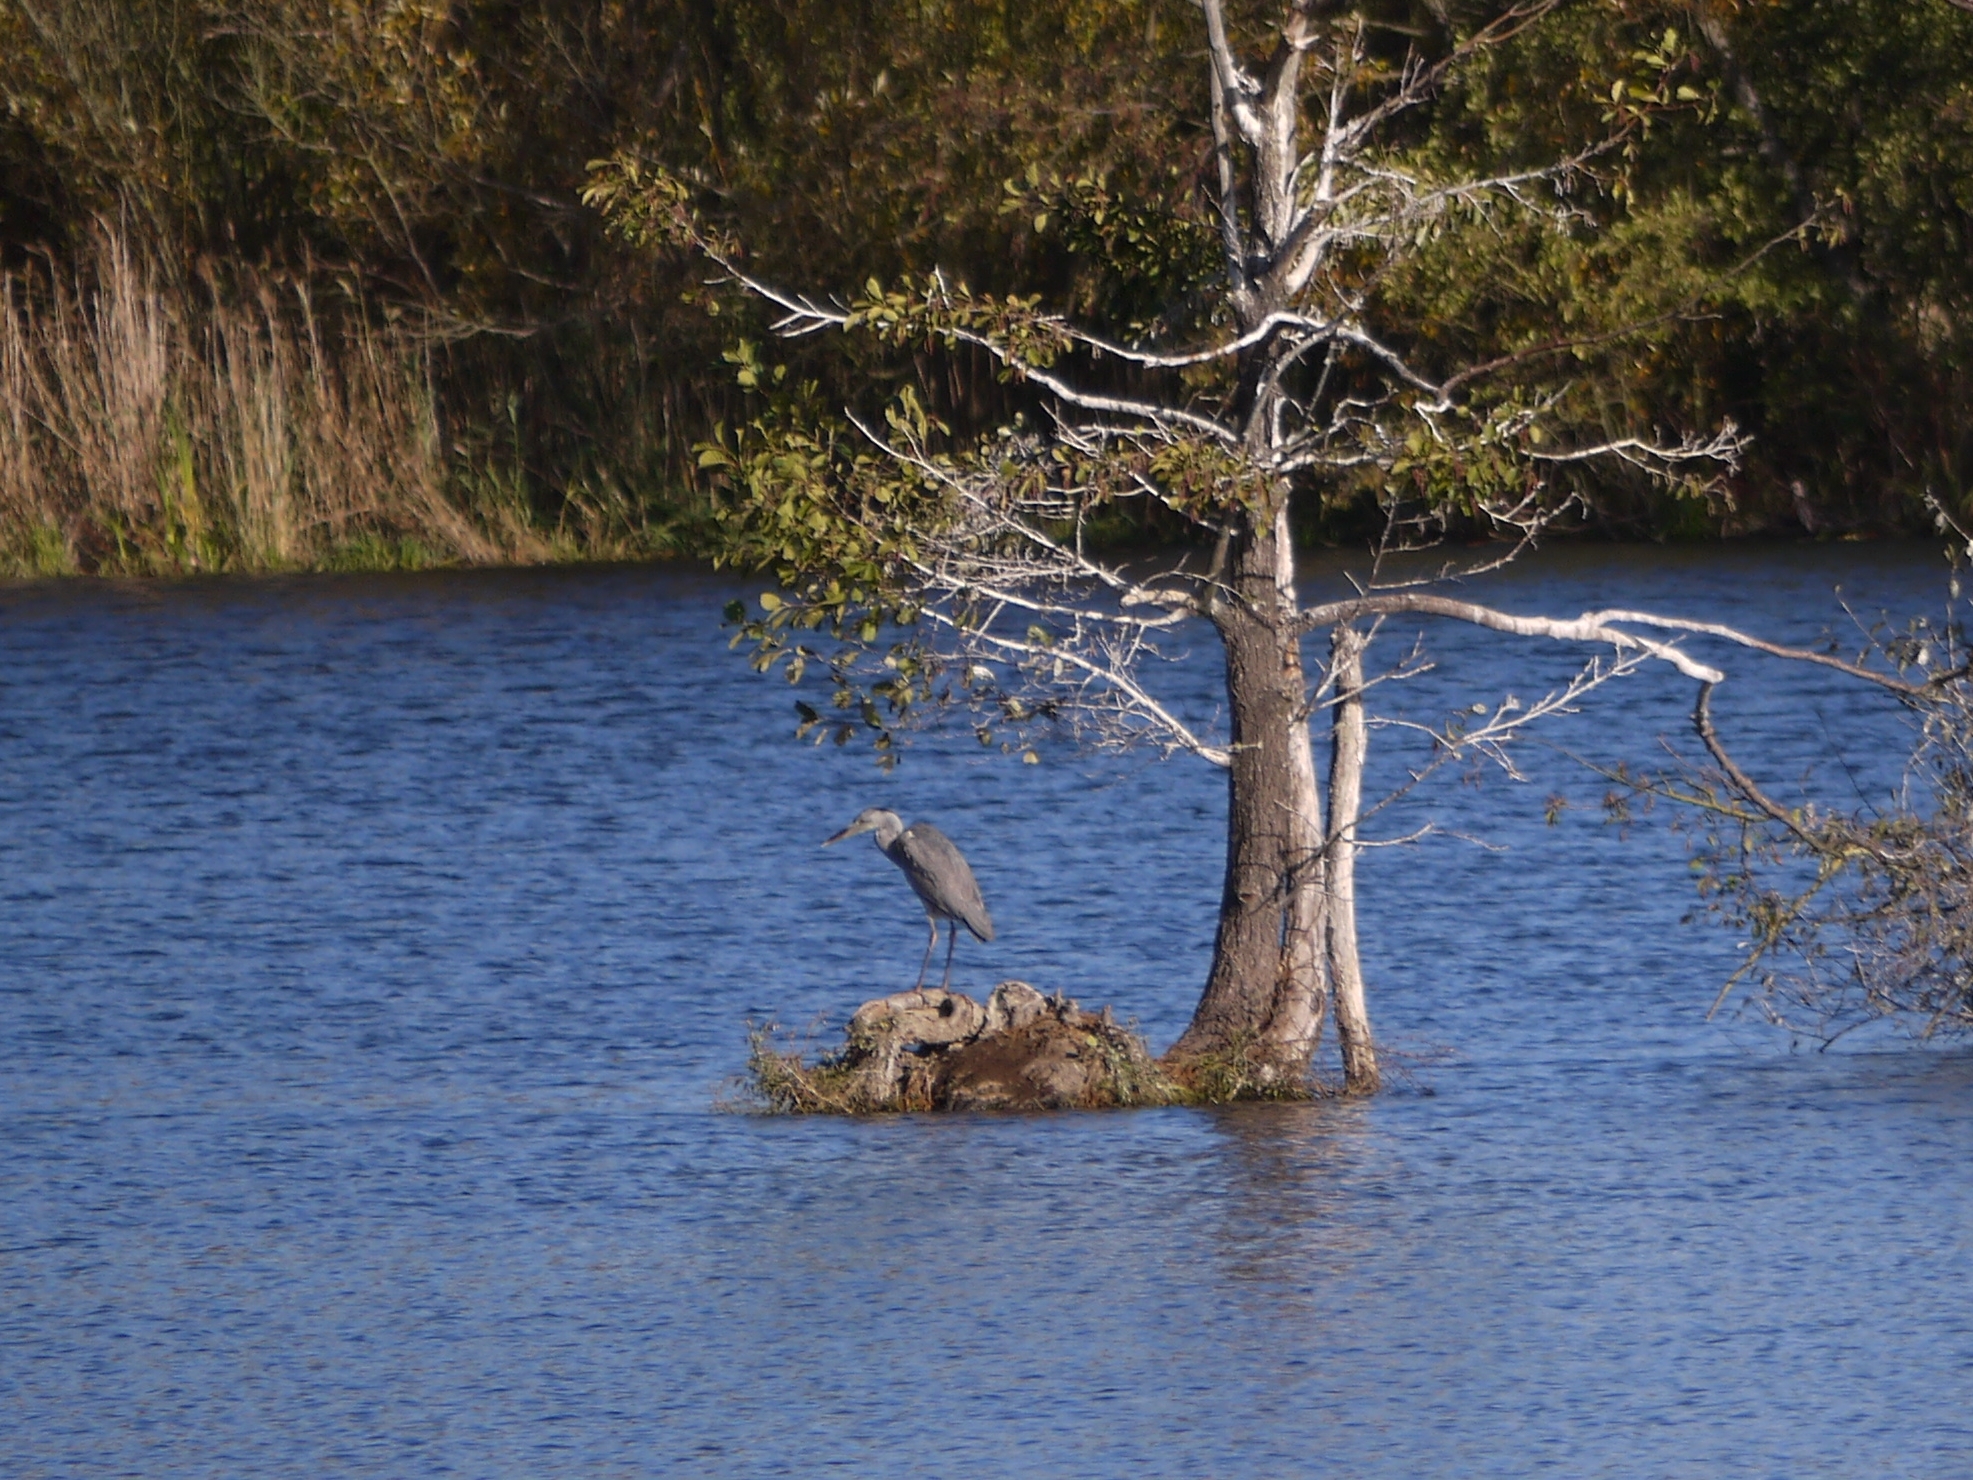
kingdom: Animalia
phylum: Chordata
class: Aves
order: Pelecaniformes
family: Ardeidae
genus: Ardea
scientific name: Ardea cinerea
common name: Grey heron
